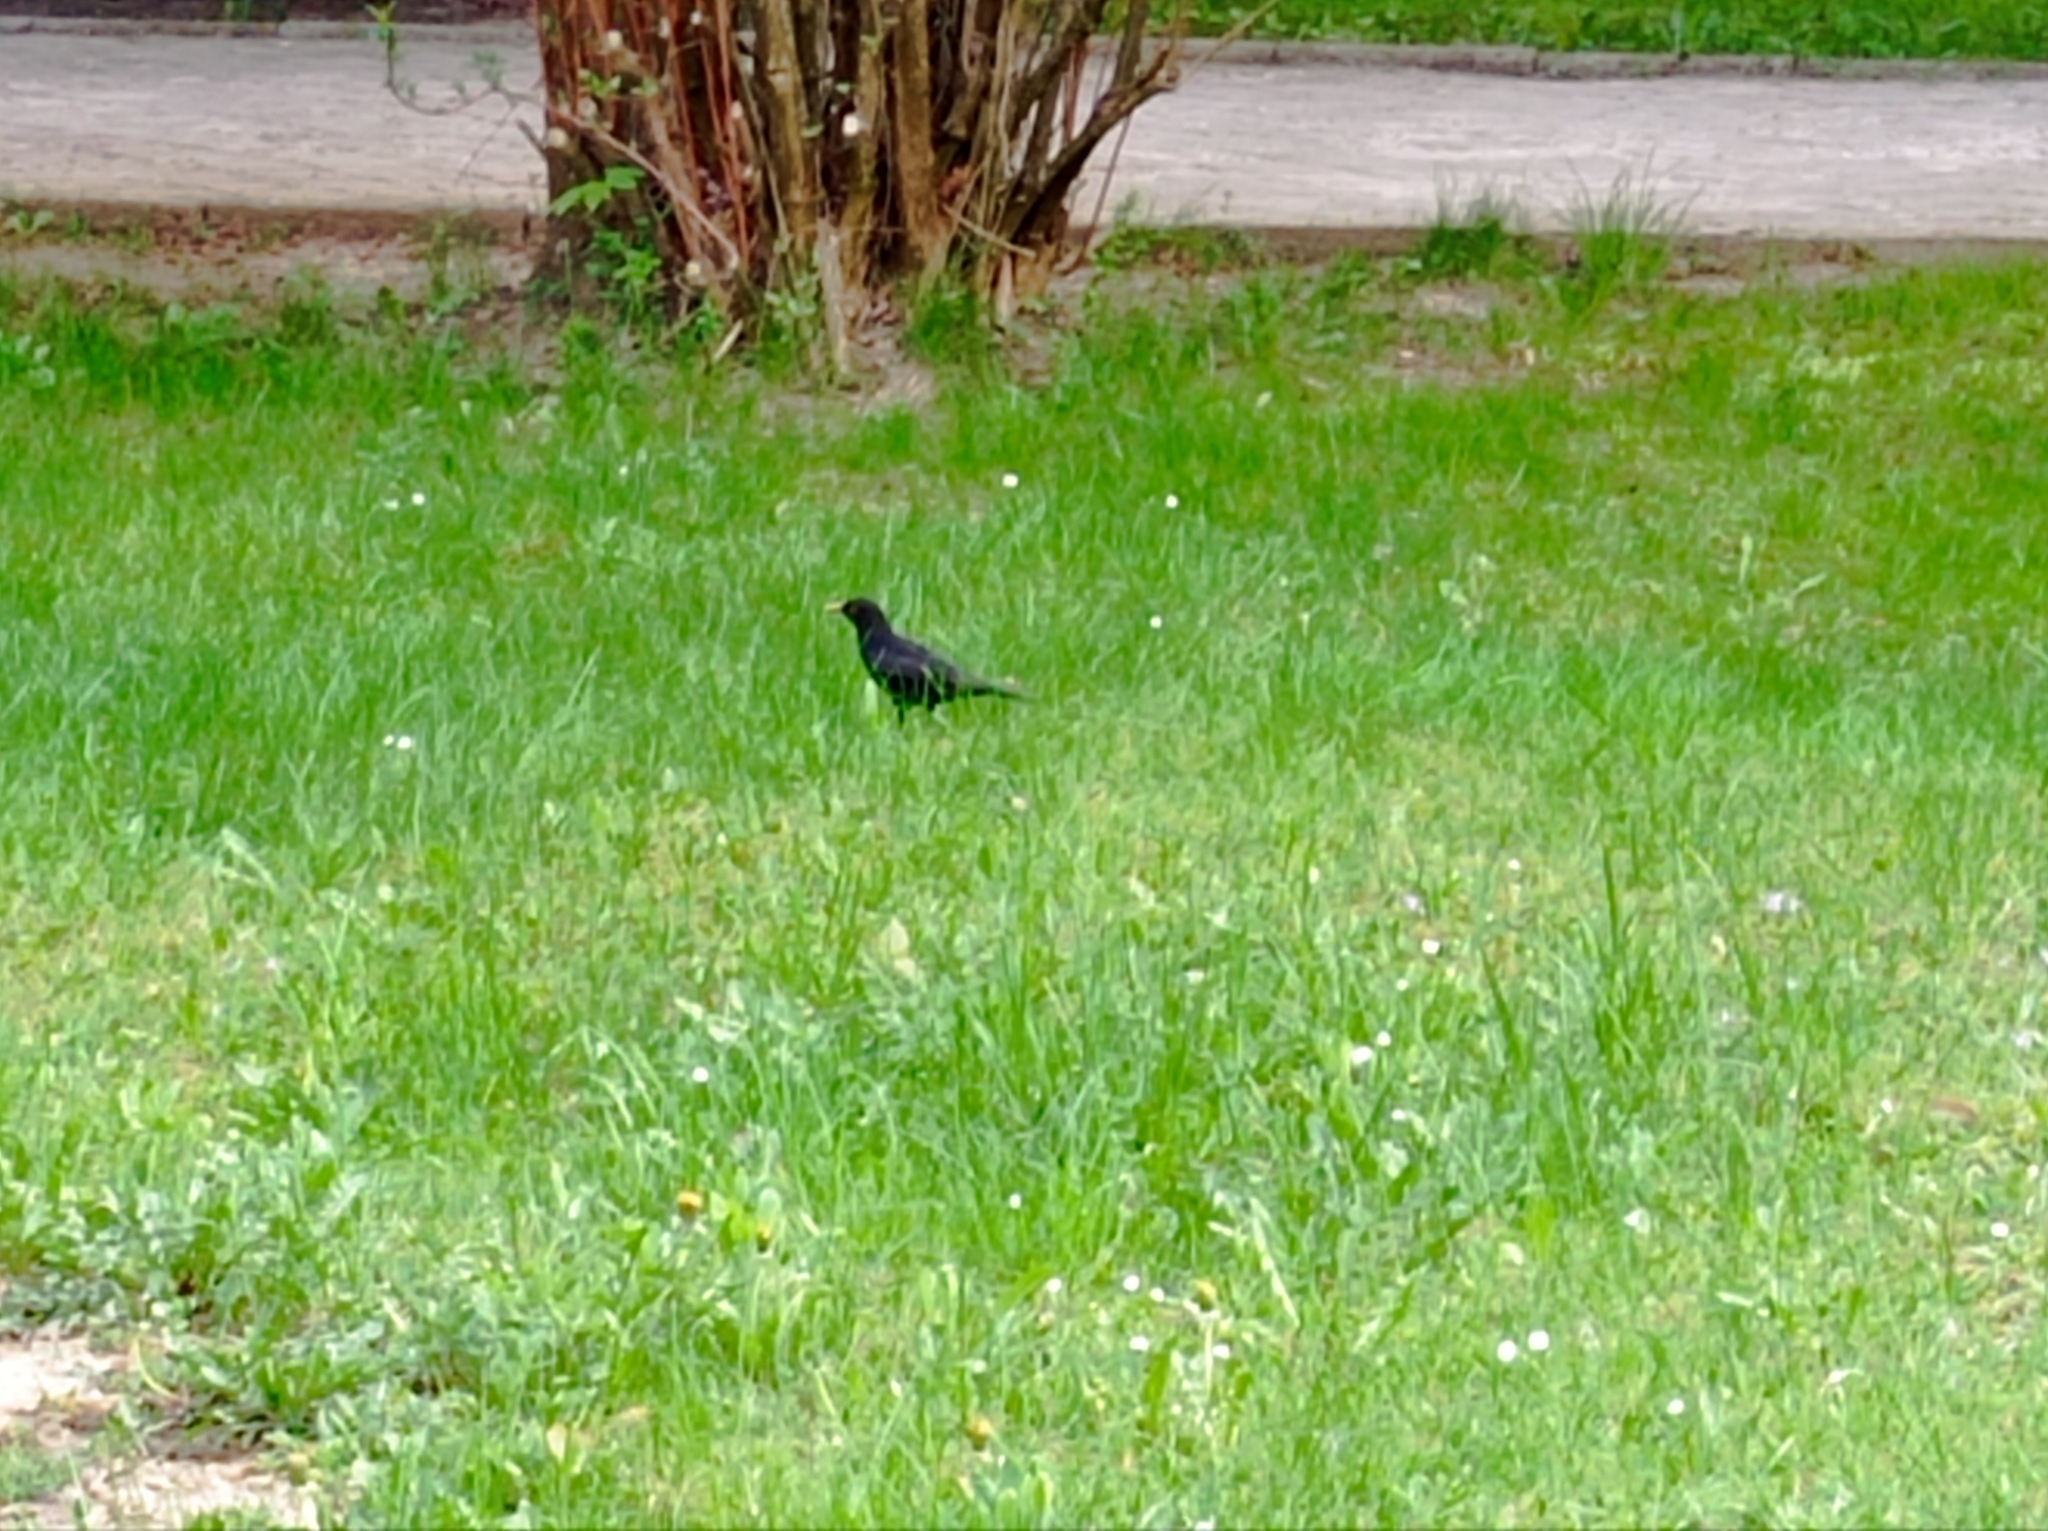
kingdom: Animalia
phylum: Chordata
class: Aves
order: Passeriformes
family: Turdidae
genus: Turdus
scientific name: Turdus merula
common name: Common blackbird
